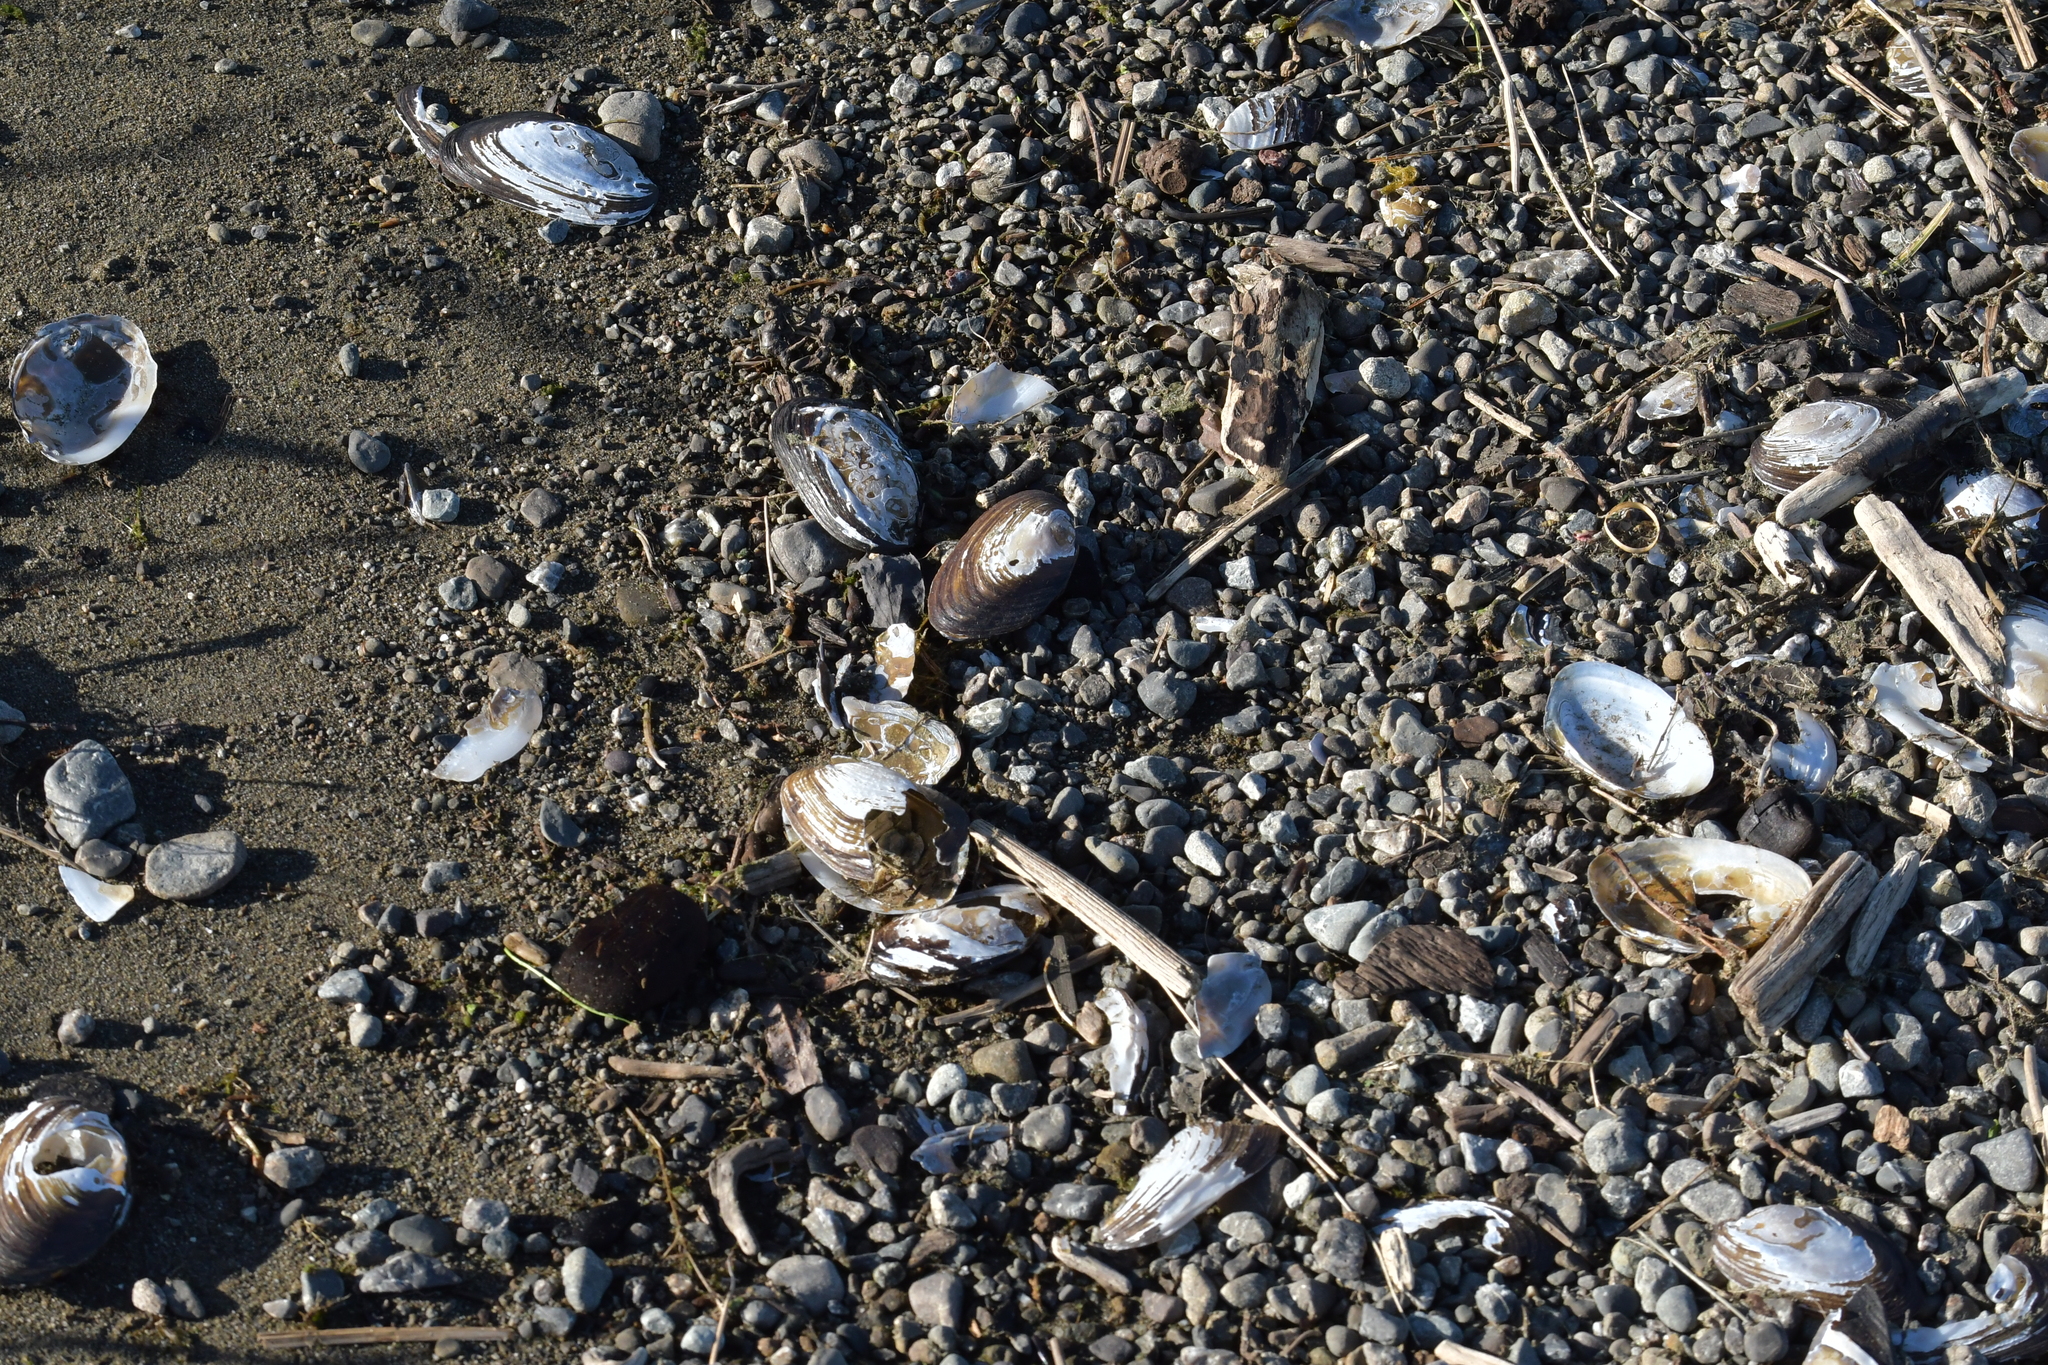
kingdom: Animalia
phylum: Mollusca
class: Bivalvia
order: Unionida
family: Hyriidae
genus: Echyridella
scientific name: Echyridella menziesii
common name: New zealand freshwater mussel
